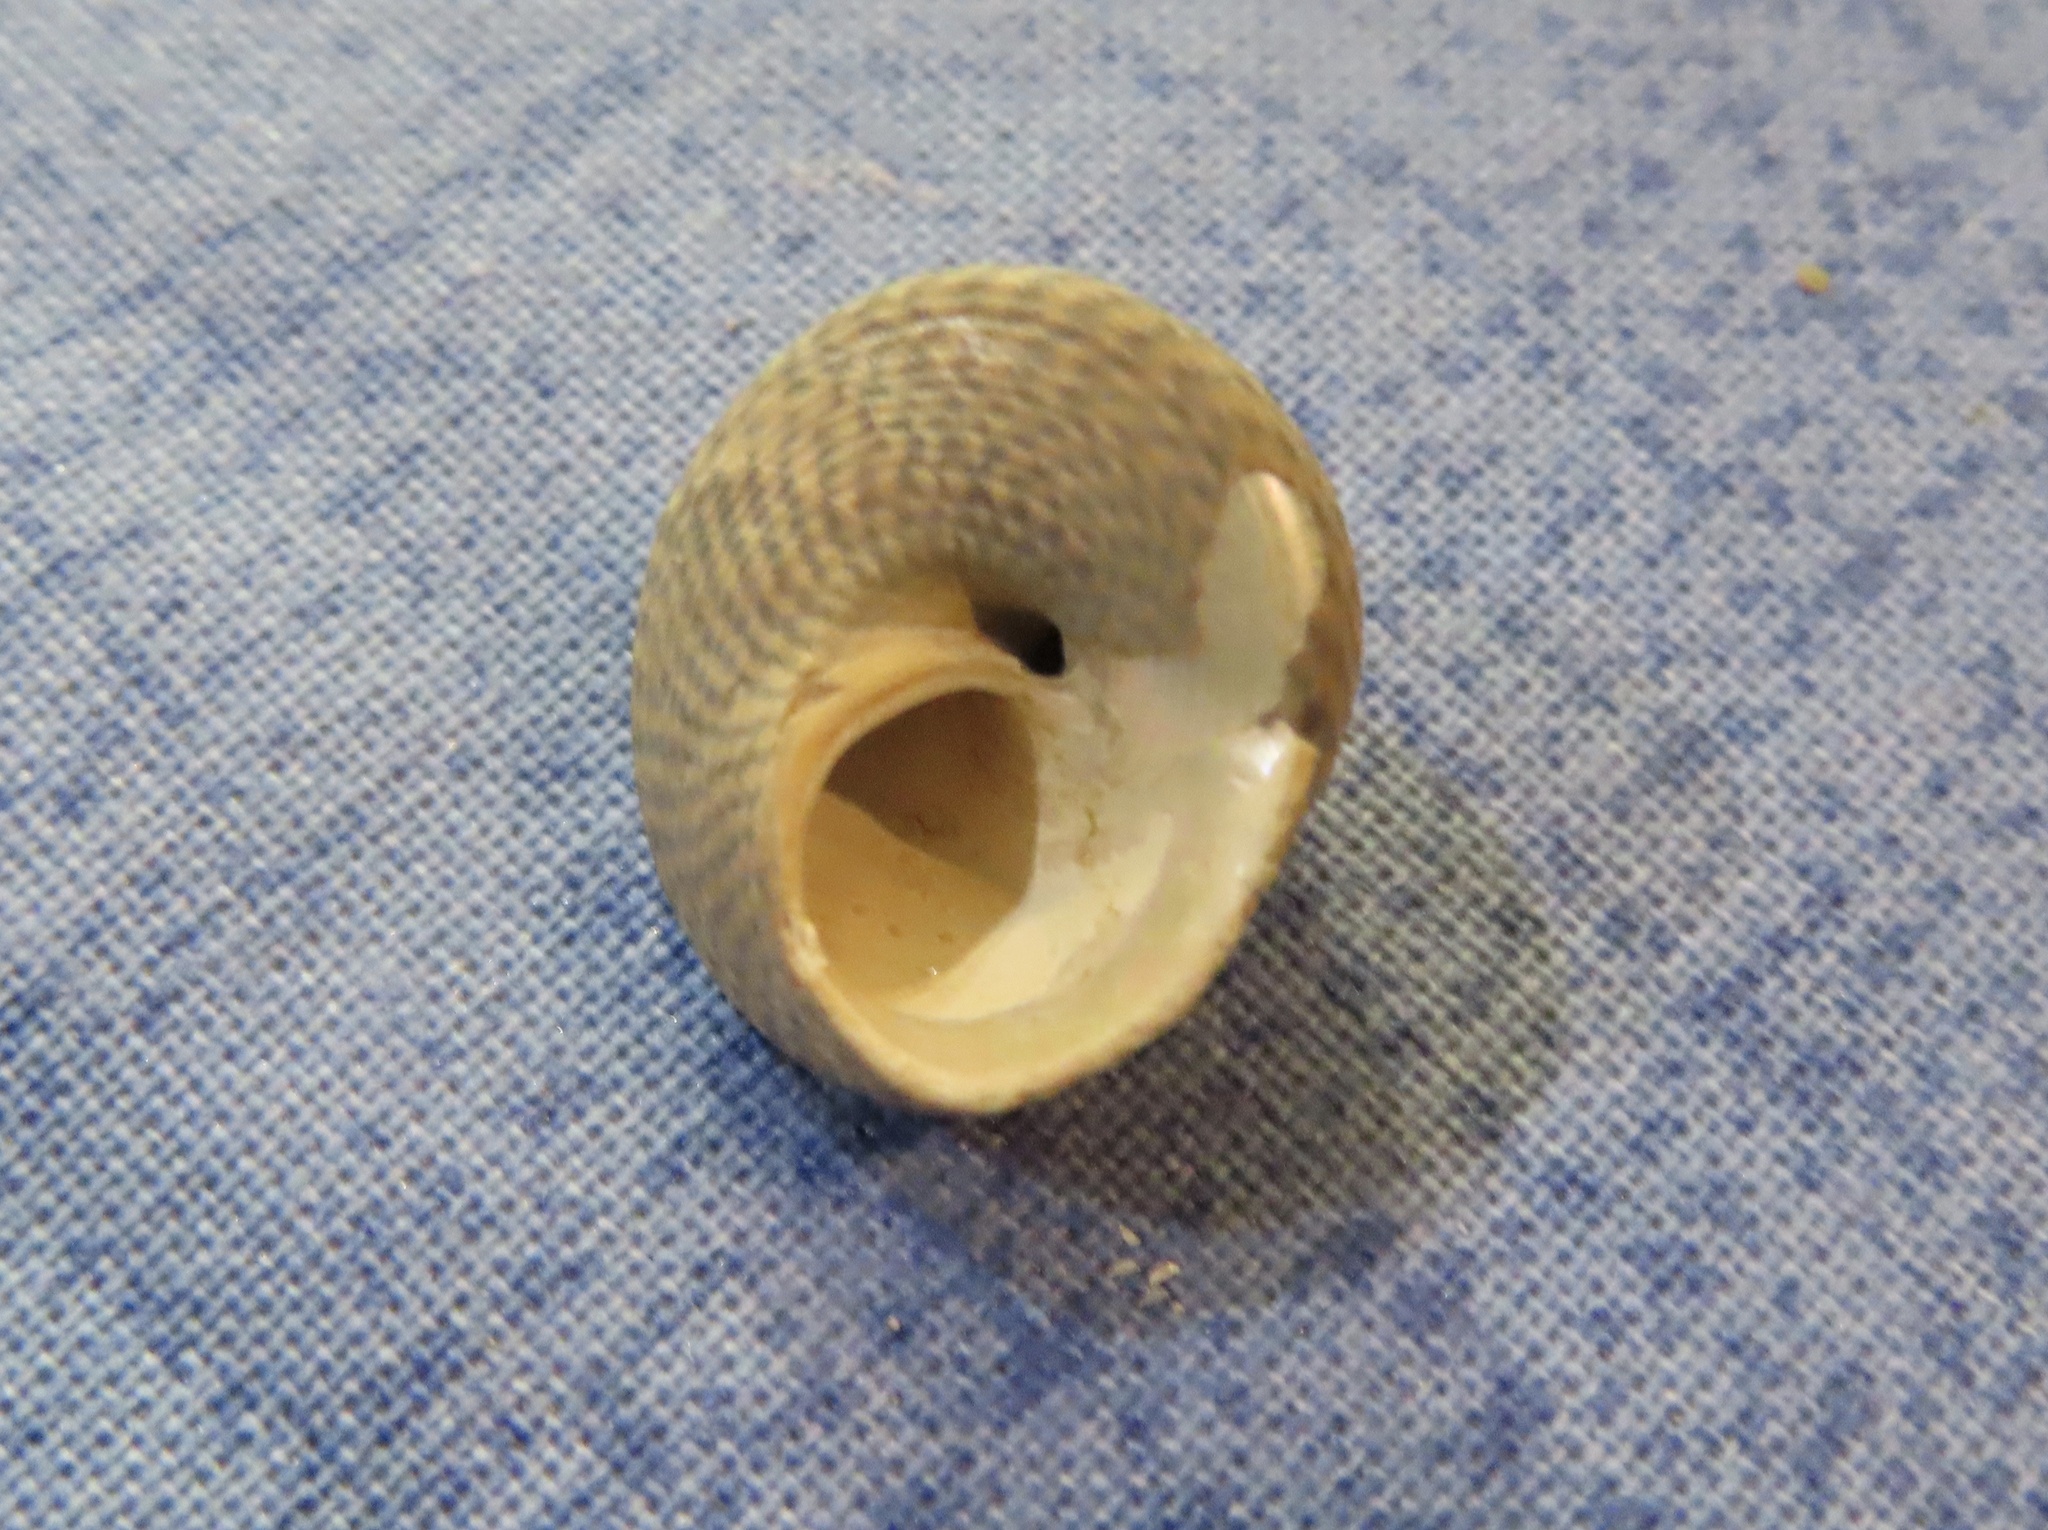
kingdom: Animalia
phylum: Mollusca
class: Gastropoda
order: Trochida
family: Trochidae
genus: Steromphala
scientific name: Steromphala cineraria
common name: Grey top shell
